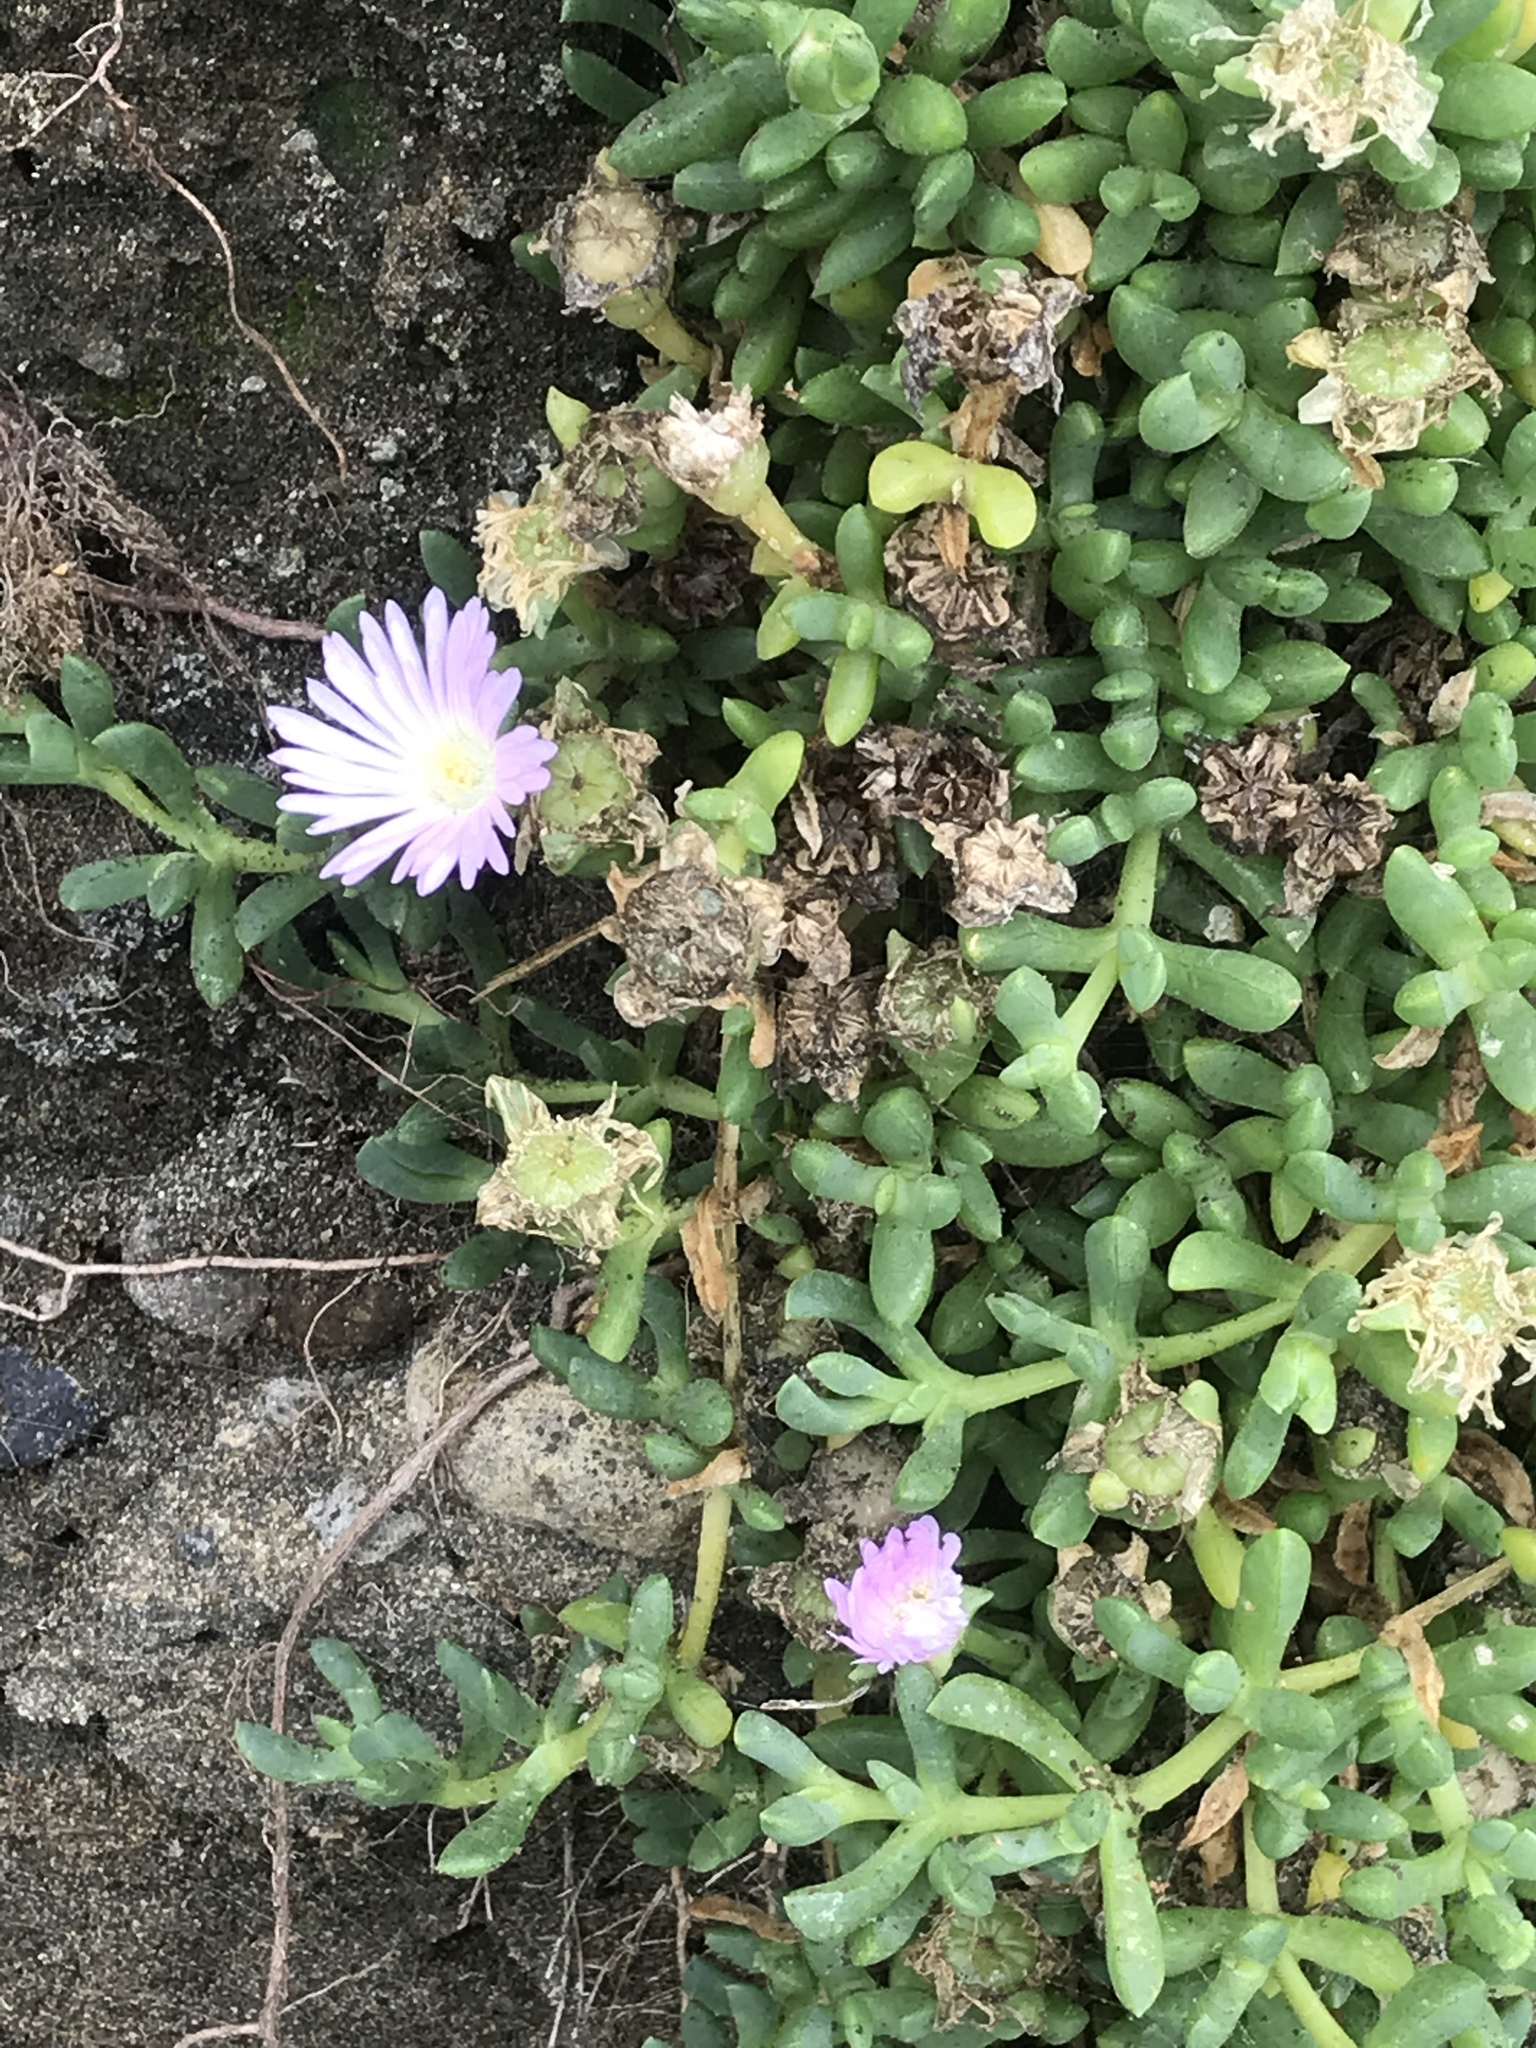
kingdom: Plantae
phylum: Tracheophyta
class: Magnoliopsida
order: Caryophyllales
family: Aizoaceae
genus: Disphyma
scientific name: Disphyma australe
